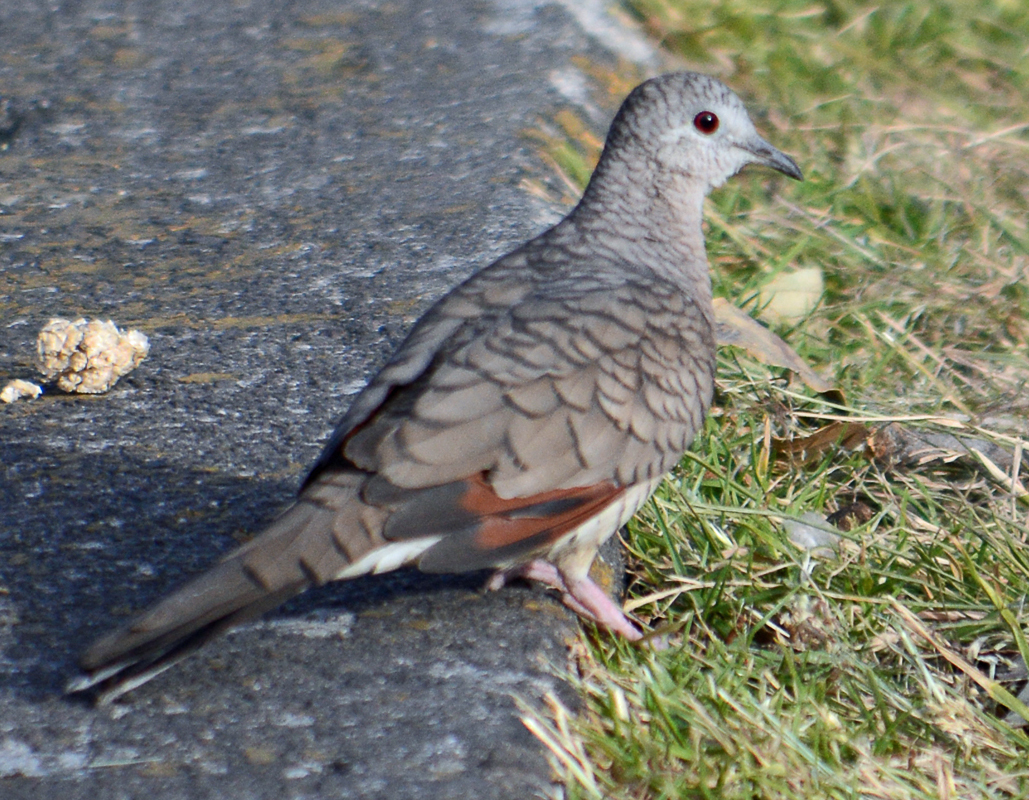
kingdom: Animalia
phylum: Chordata
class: Aves
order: Columbiformes
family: Columbidae
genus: Columbina
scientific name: Columbina inca
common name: Inca dove
